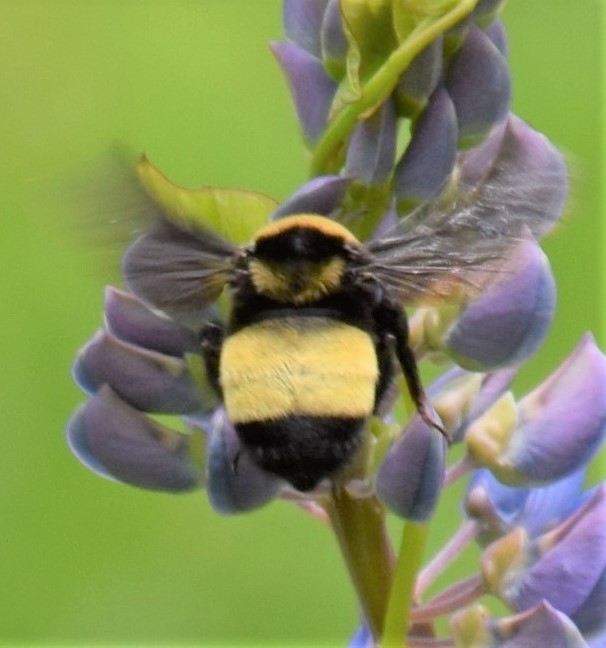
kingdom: Animalia
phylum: Arthropoda
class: Insecta
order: Hymenoptera
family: Apidae
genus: Bombus
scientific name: Bombus auricomus
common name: Black and gold bumble bee
